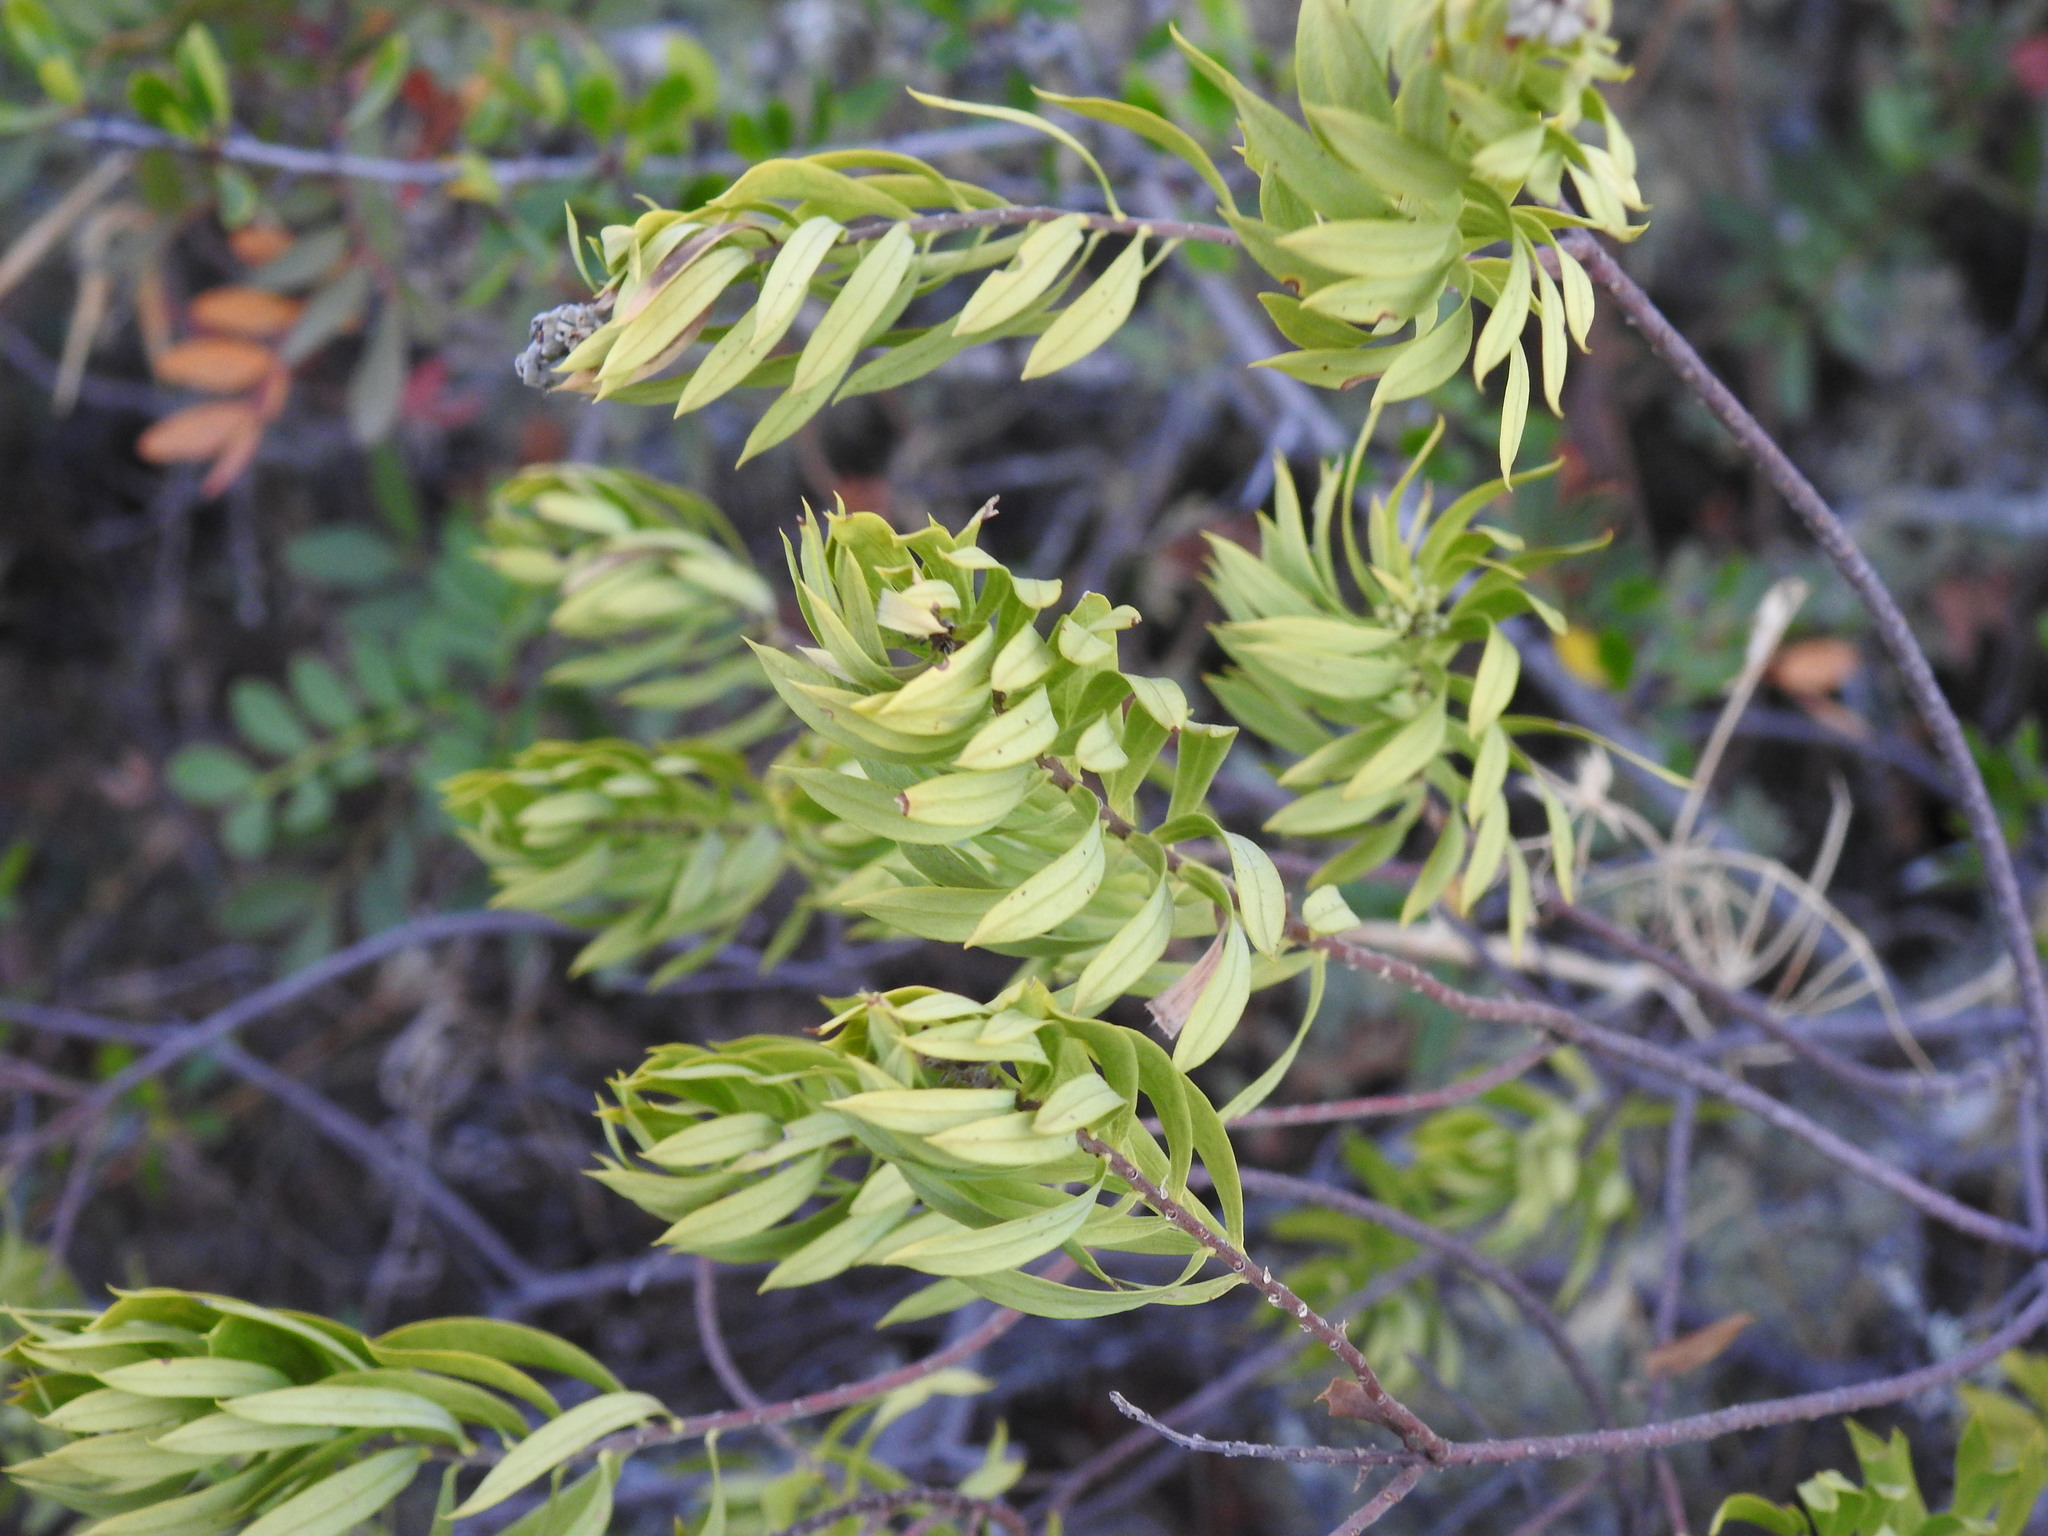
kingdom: Plantae
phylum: Tracheophyta
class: Magnoliopsida
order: Malvales
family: Thymelaeaceae
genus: Daphne
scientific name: Daphne gnidium
